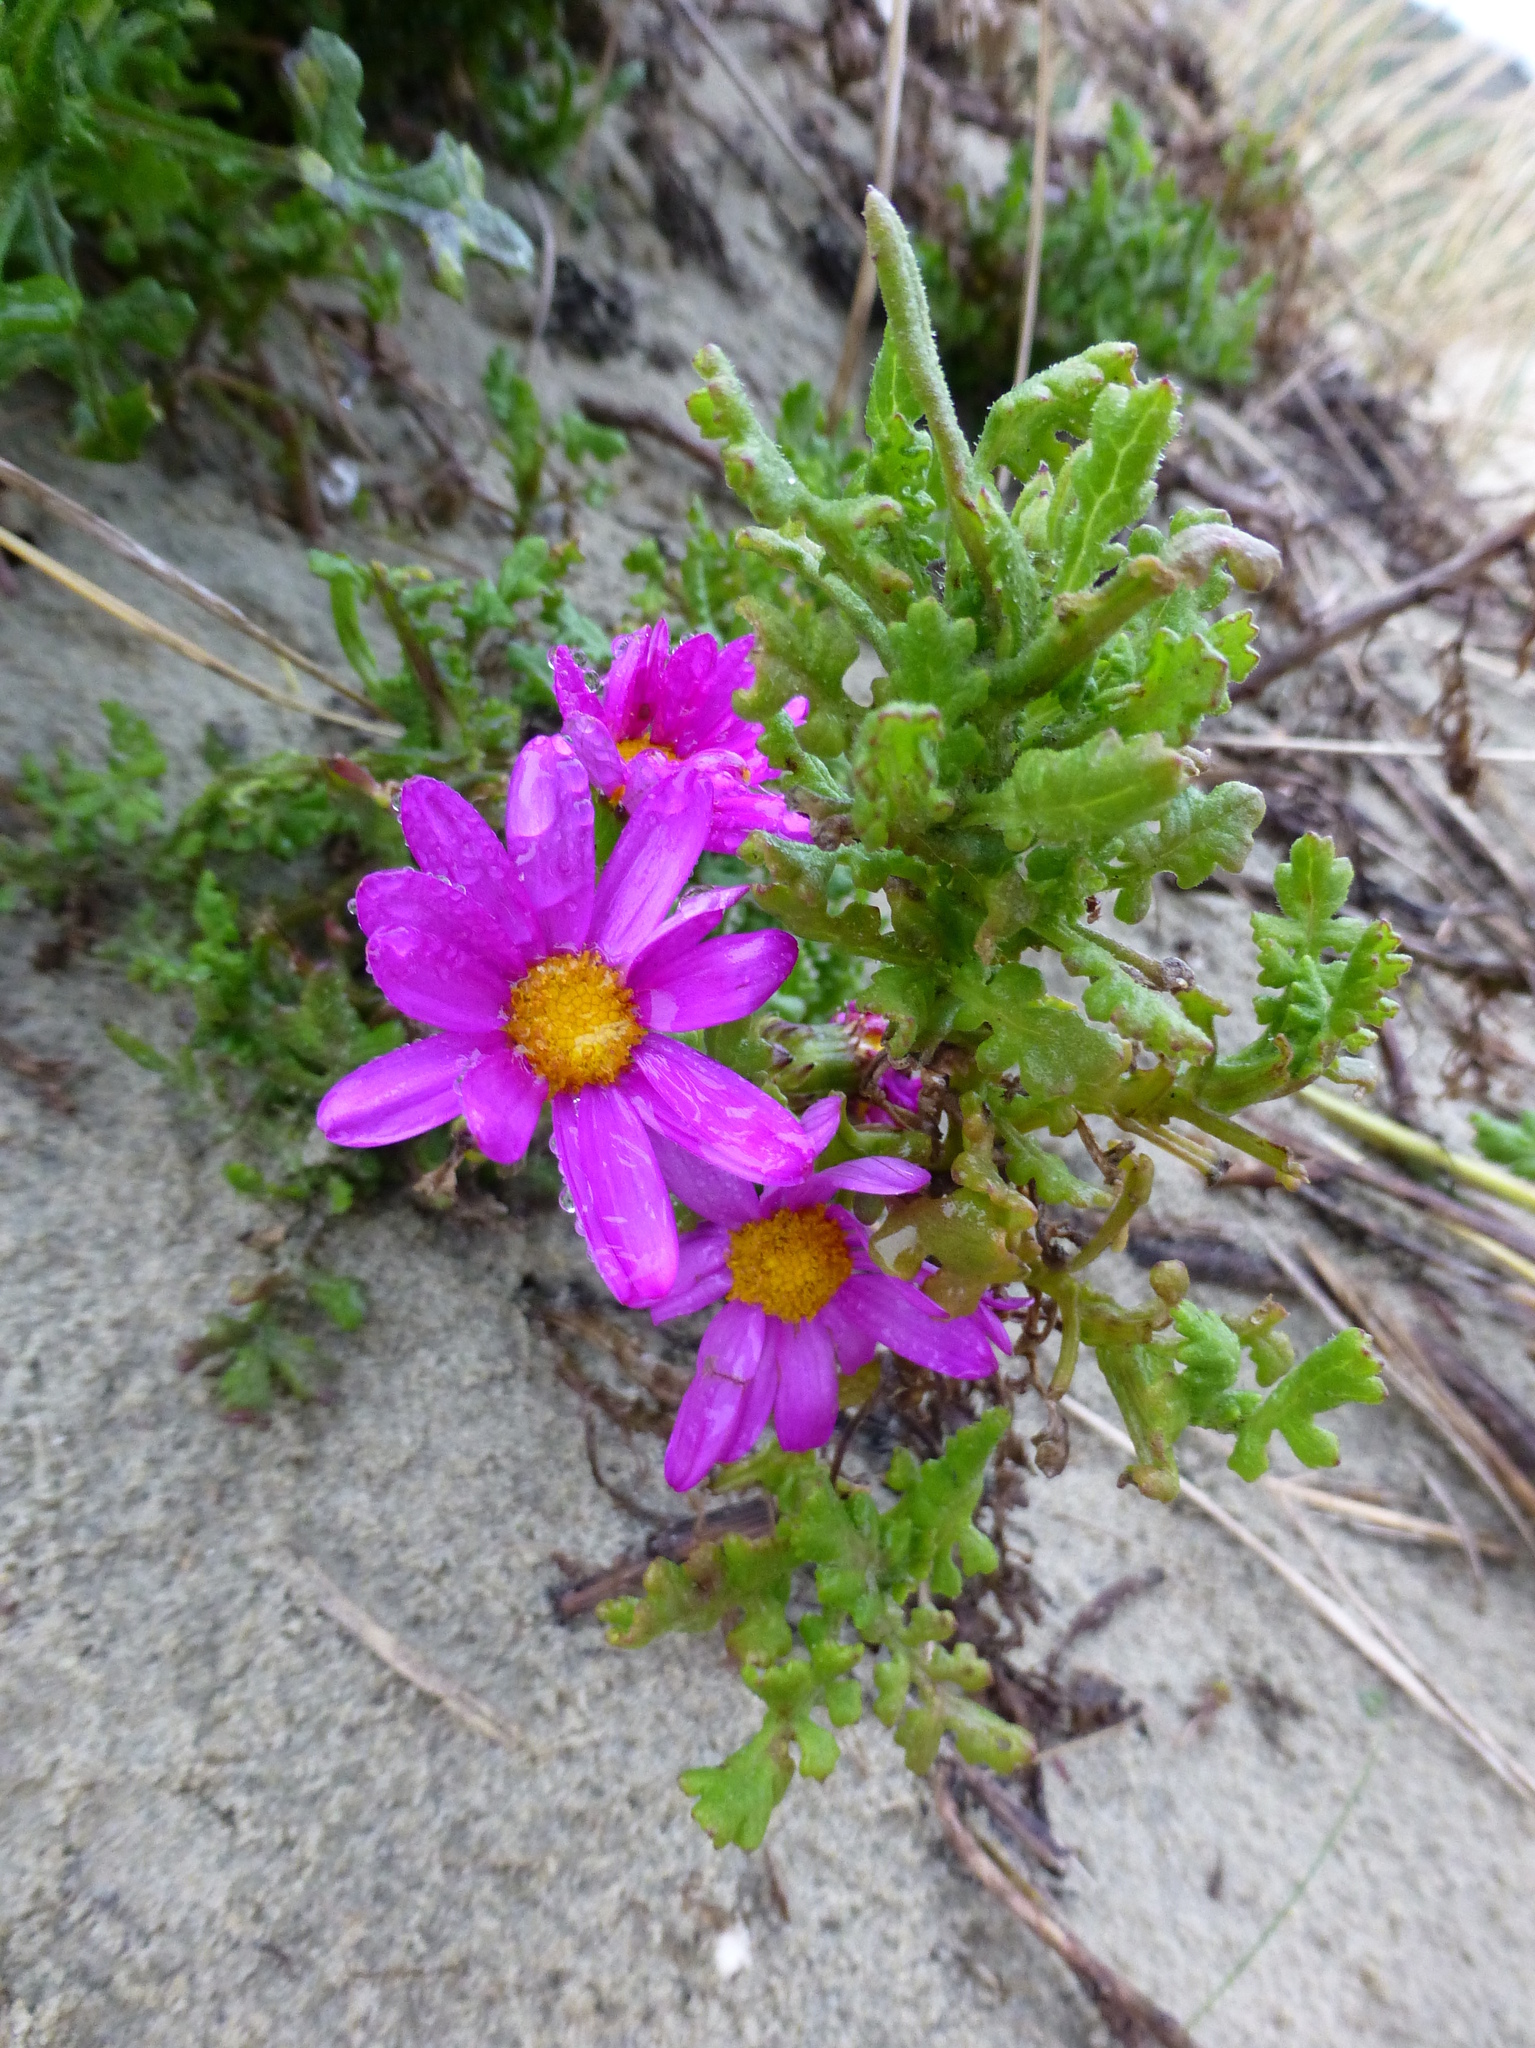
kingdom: Plantae
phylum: Tracheophyta
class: Magnoliopsida
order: Asterales
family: Asteraceae
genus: Senecio
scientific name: Senecio elegans
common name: Purple groundsel
